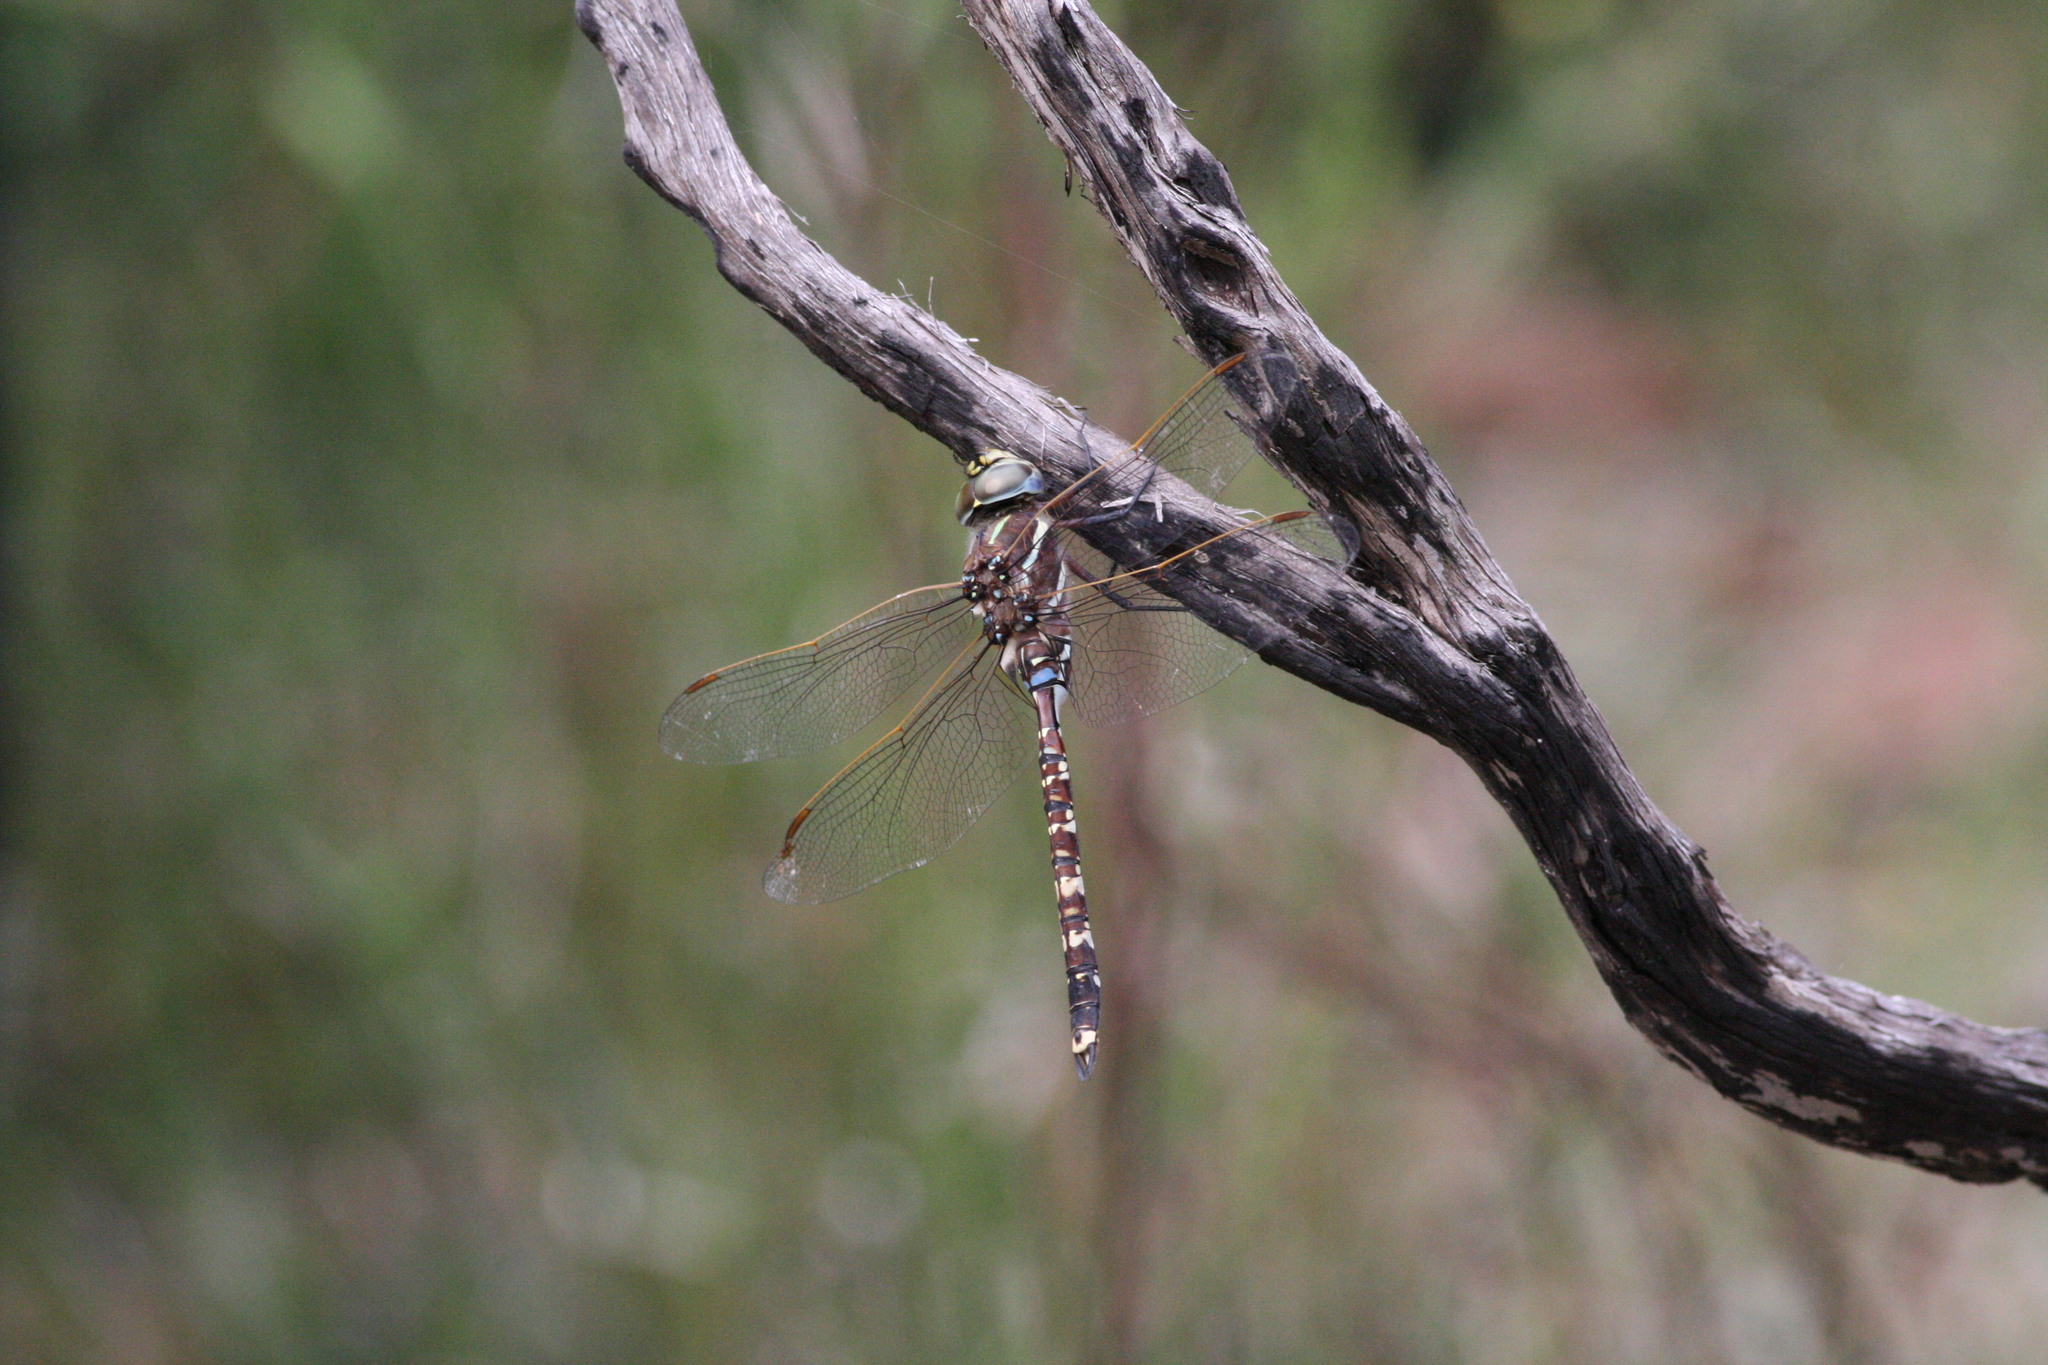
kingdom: Animalia
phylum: Arthropoda
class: Insecta
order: Odonata
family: Aeshnidae
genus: Aeshna
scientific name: Aeshna brevistyla
